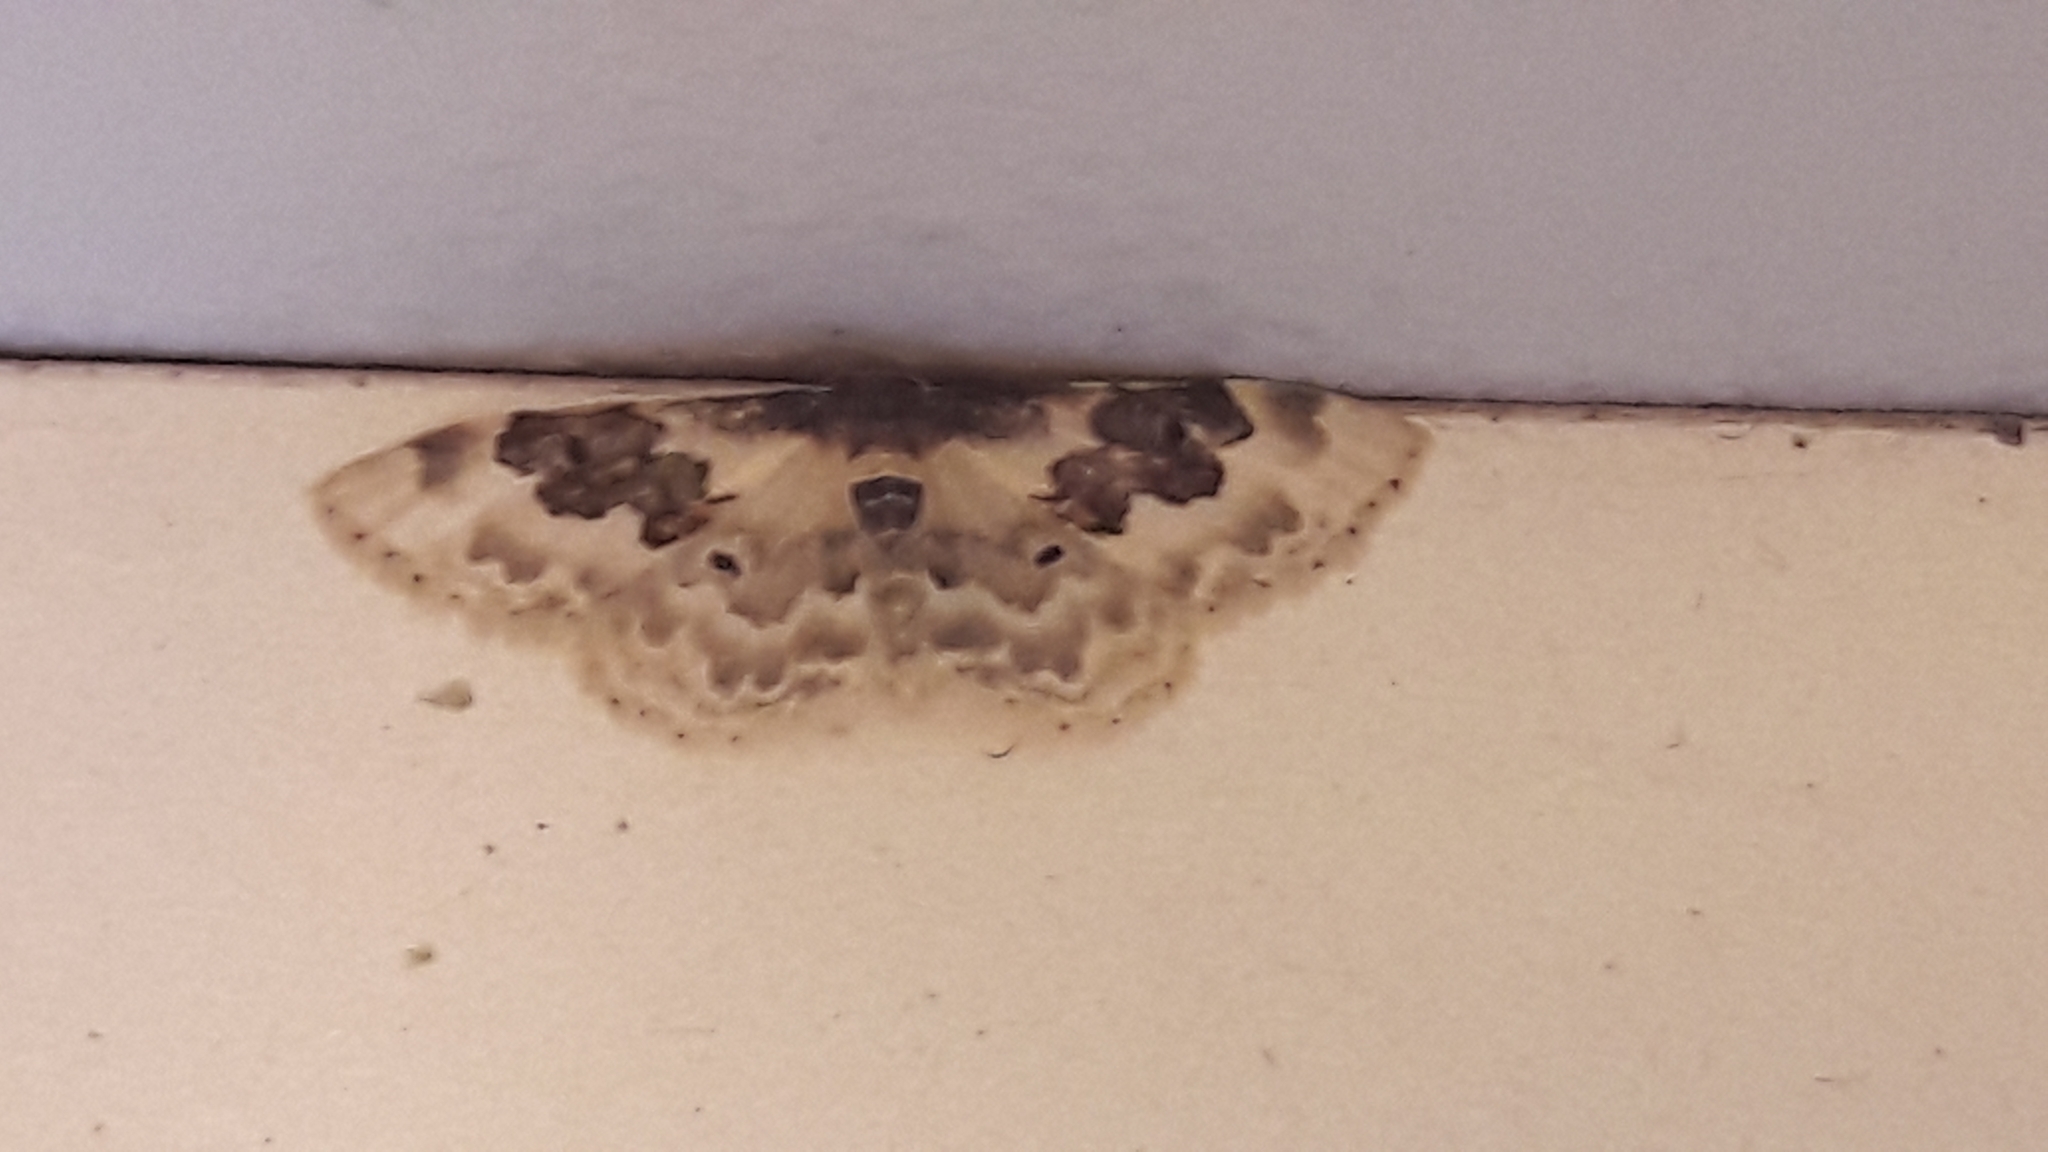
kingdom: Animalia
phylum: Arthropoda
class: Insecta
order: Lepidoptera
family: Geometridae
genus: Idaea
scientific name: Idaea rusticata
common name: Least carpet
